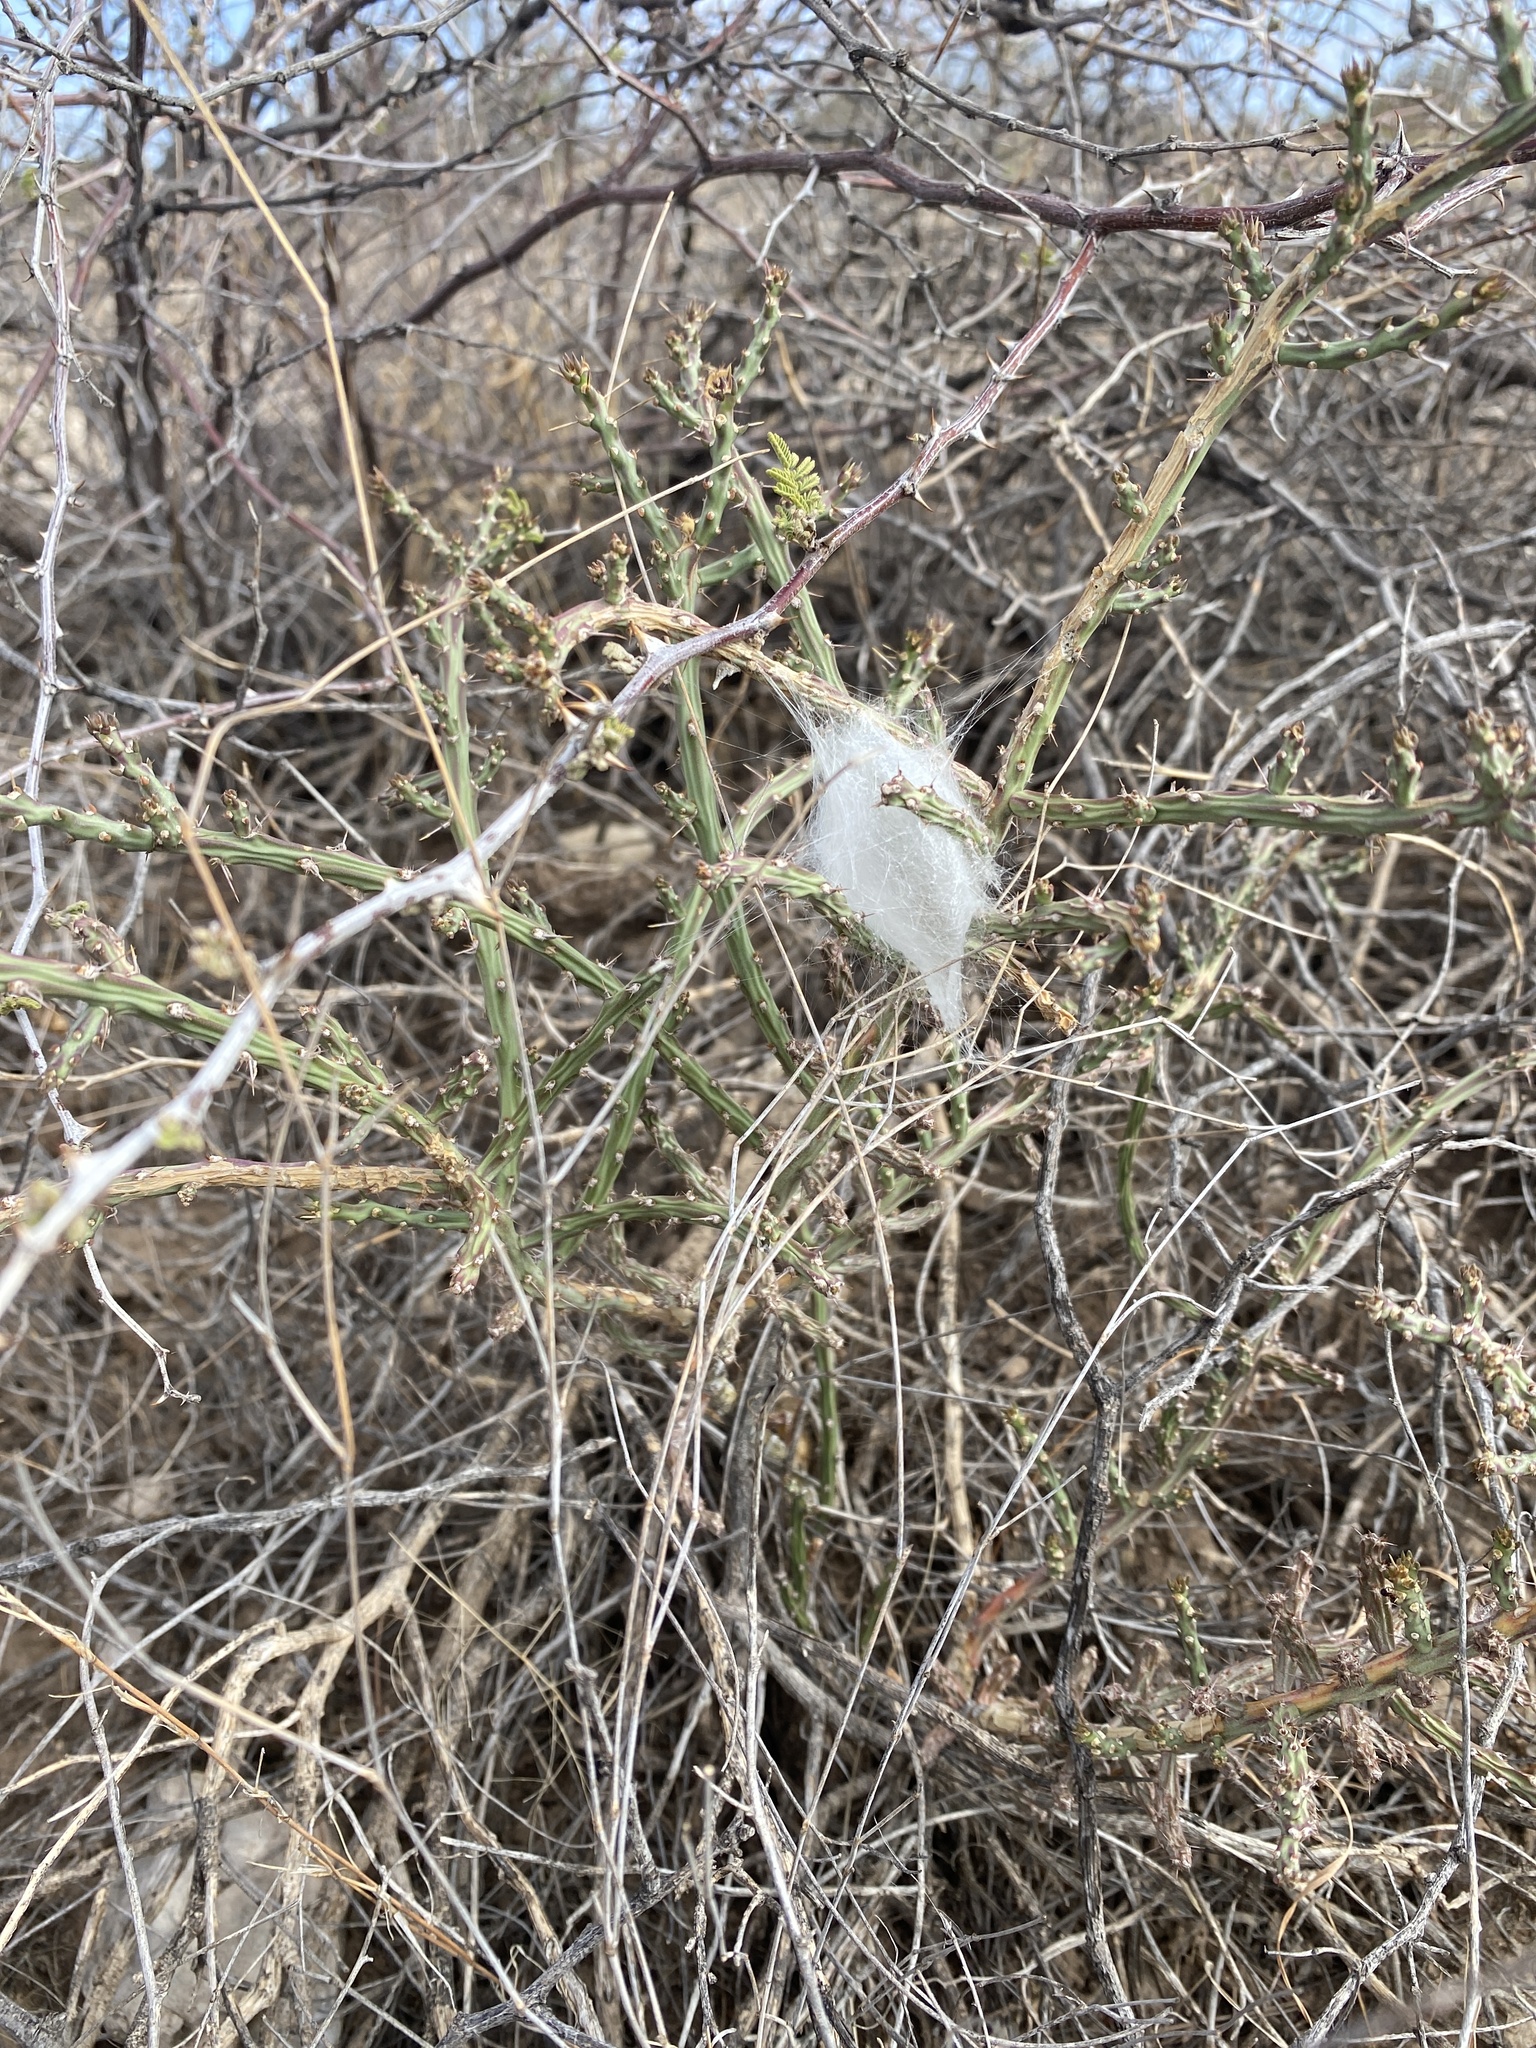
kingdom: Plantae
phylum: Tracheophyta
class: Magnoliopsida
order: Caryophyllales
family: Cactaceae
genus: Cylindropuntia
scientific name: Cylindropuntia leptocaulis
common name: Christmas cactus
